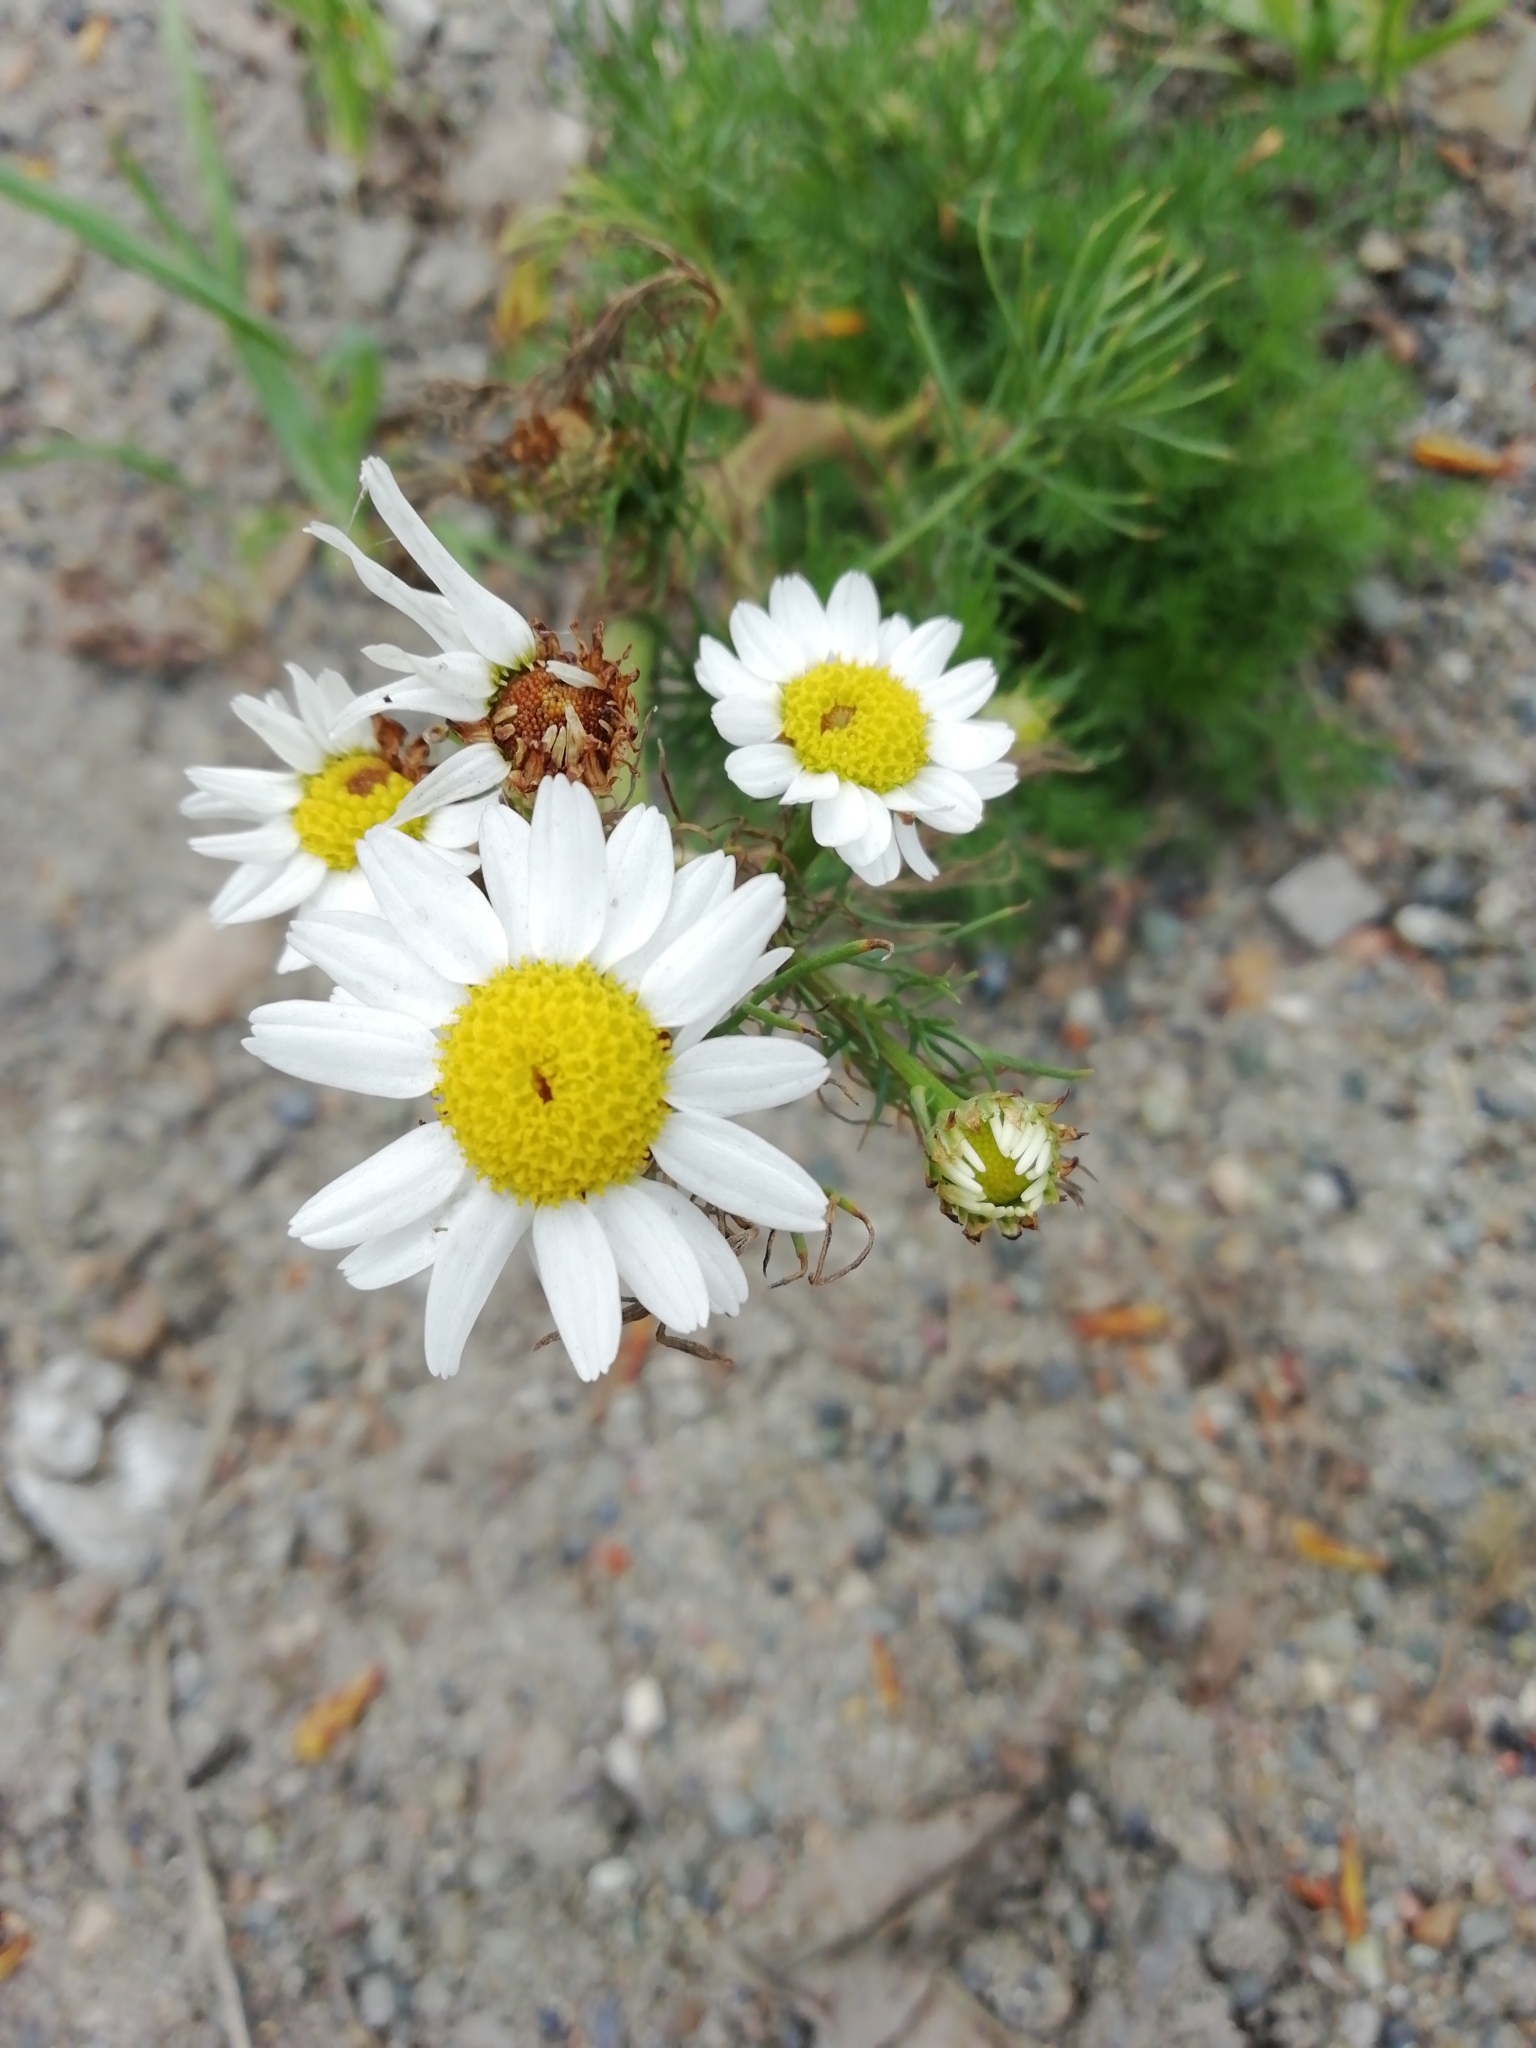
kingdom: Plantae
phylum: Tracheophyta
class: Magnoliopsida
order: Asterales
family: Asteraceae
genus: Tripleurospermum
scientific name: Tripleurospermum inodorum
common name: Scentless mayweed
